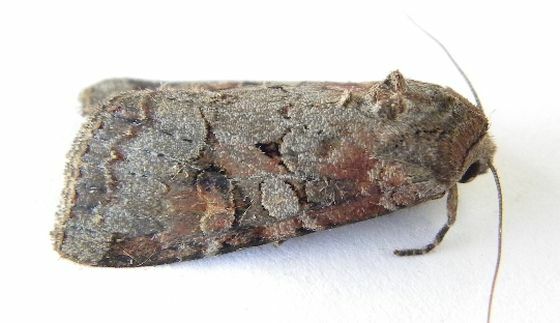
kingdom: Animalia
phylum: Arthropoda
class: Insecta
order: Lepidoptera
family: Noctuidae
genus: Trichordestra
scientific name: Trichordestra legitima
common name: Striped garden caterpillar
